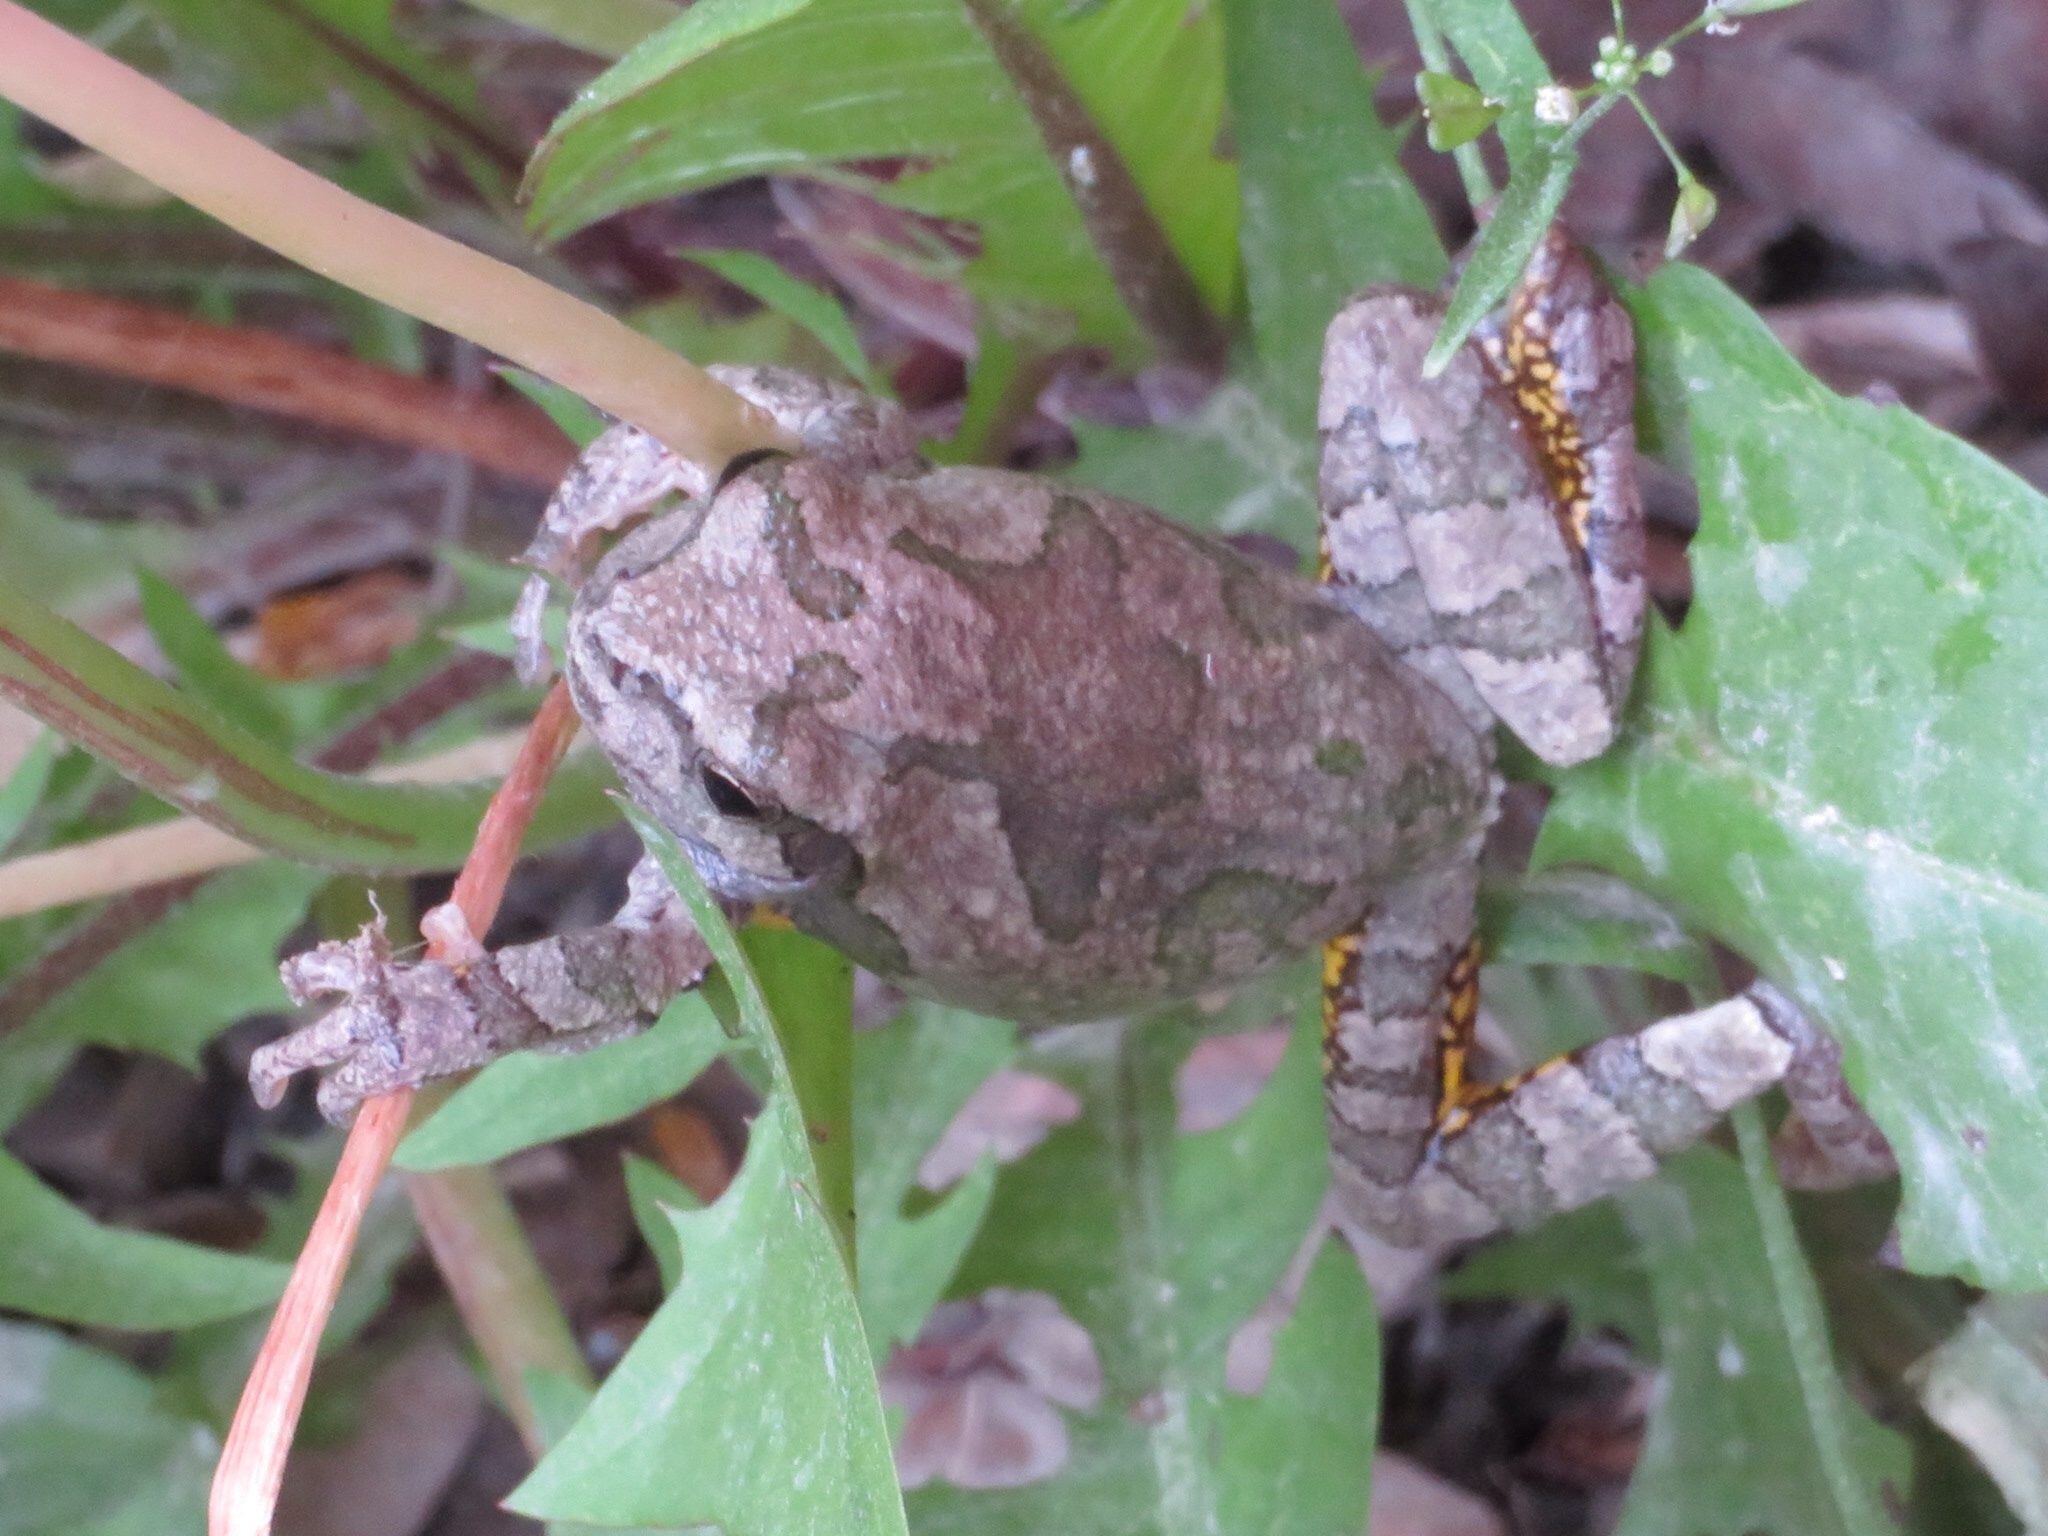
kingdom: Animalia
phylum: Chordata
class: Amphibia
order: Anura
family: Hylidae
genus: Hyla
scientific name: Hyla
